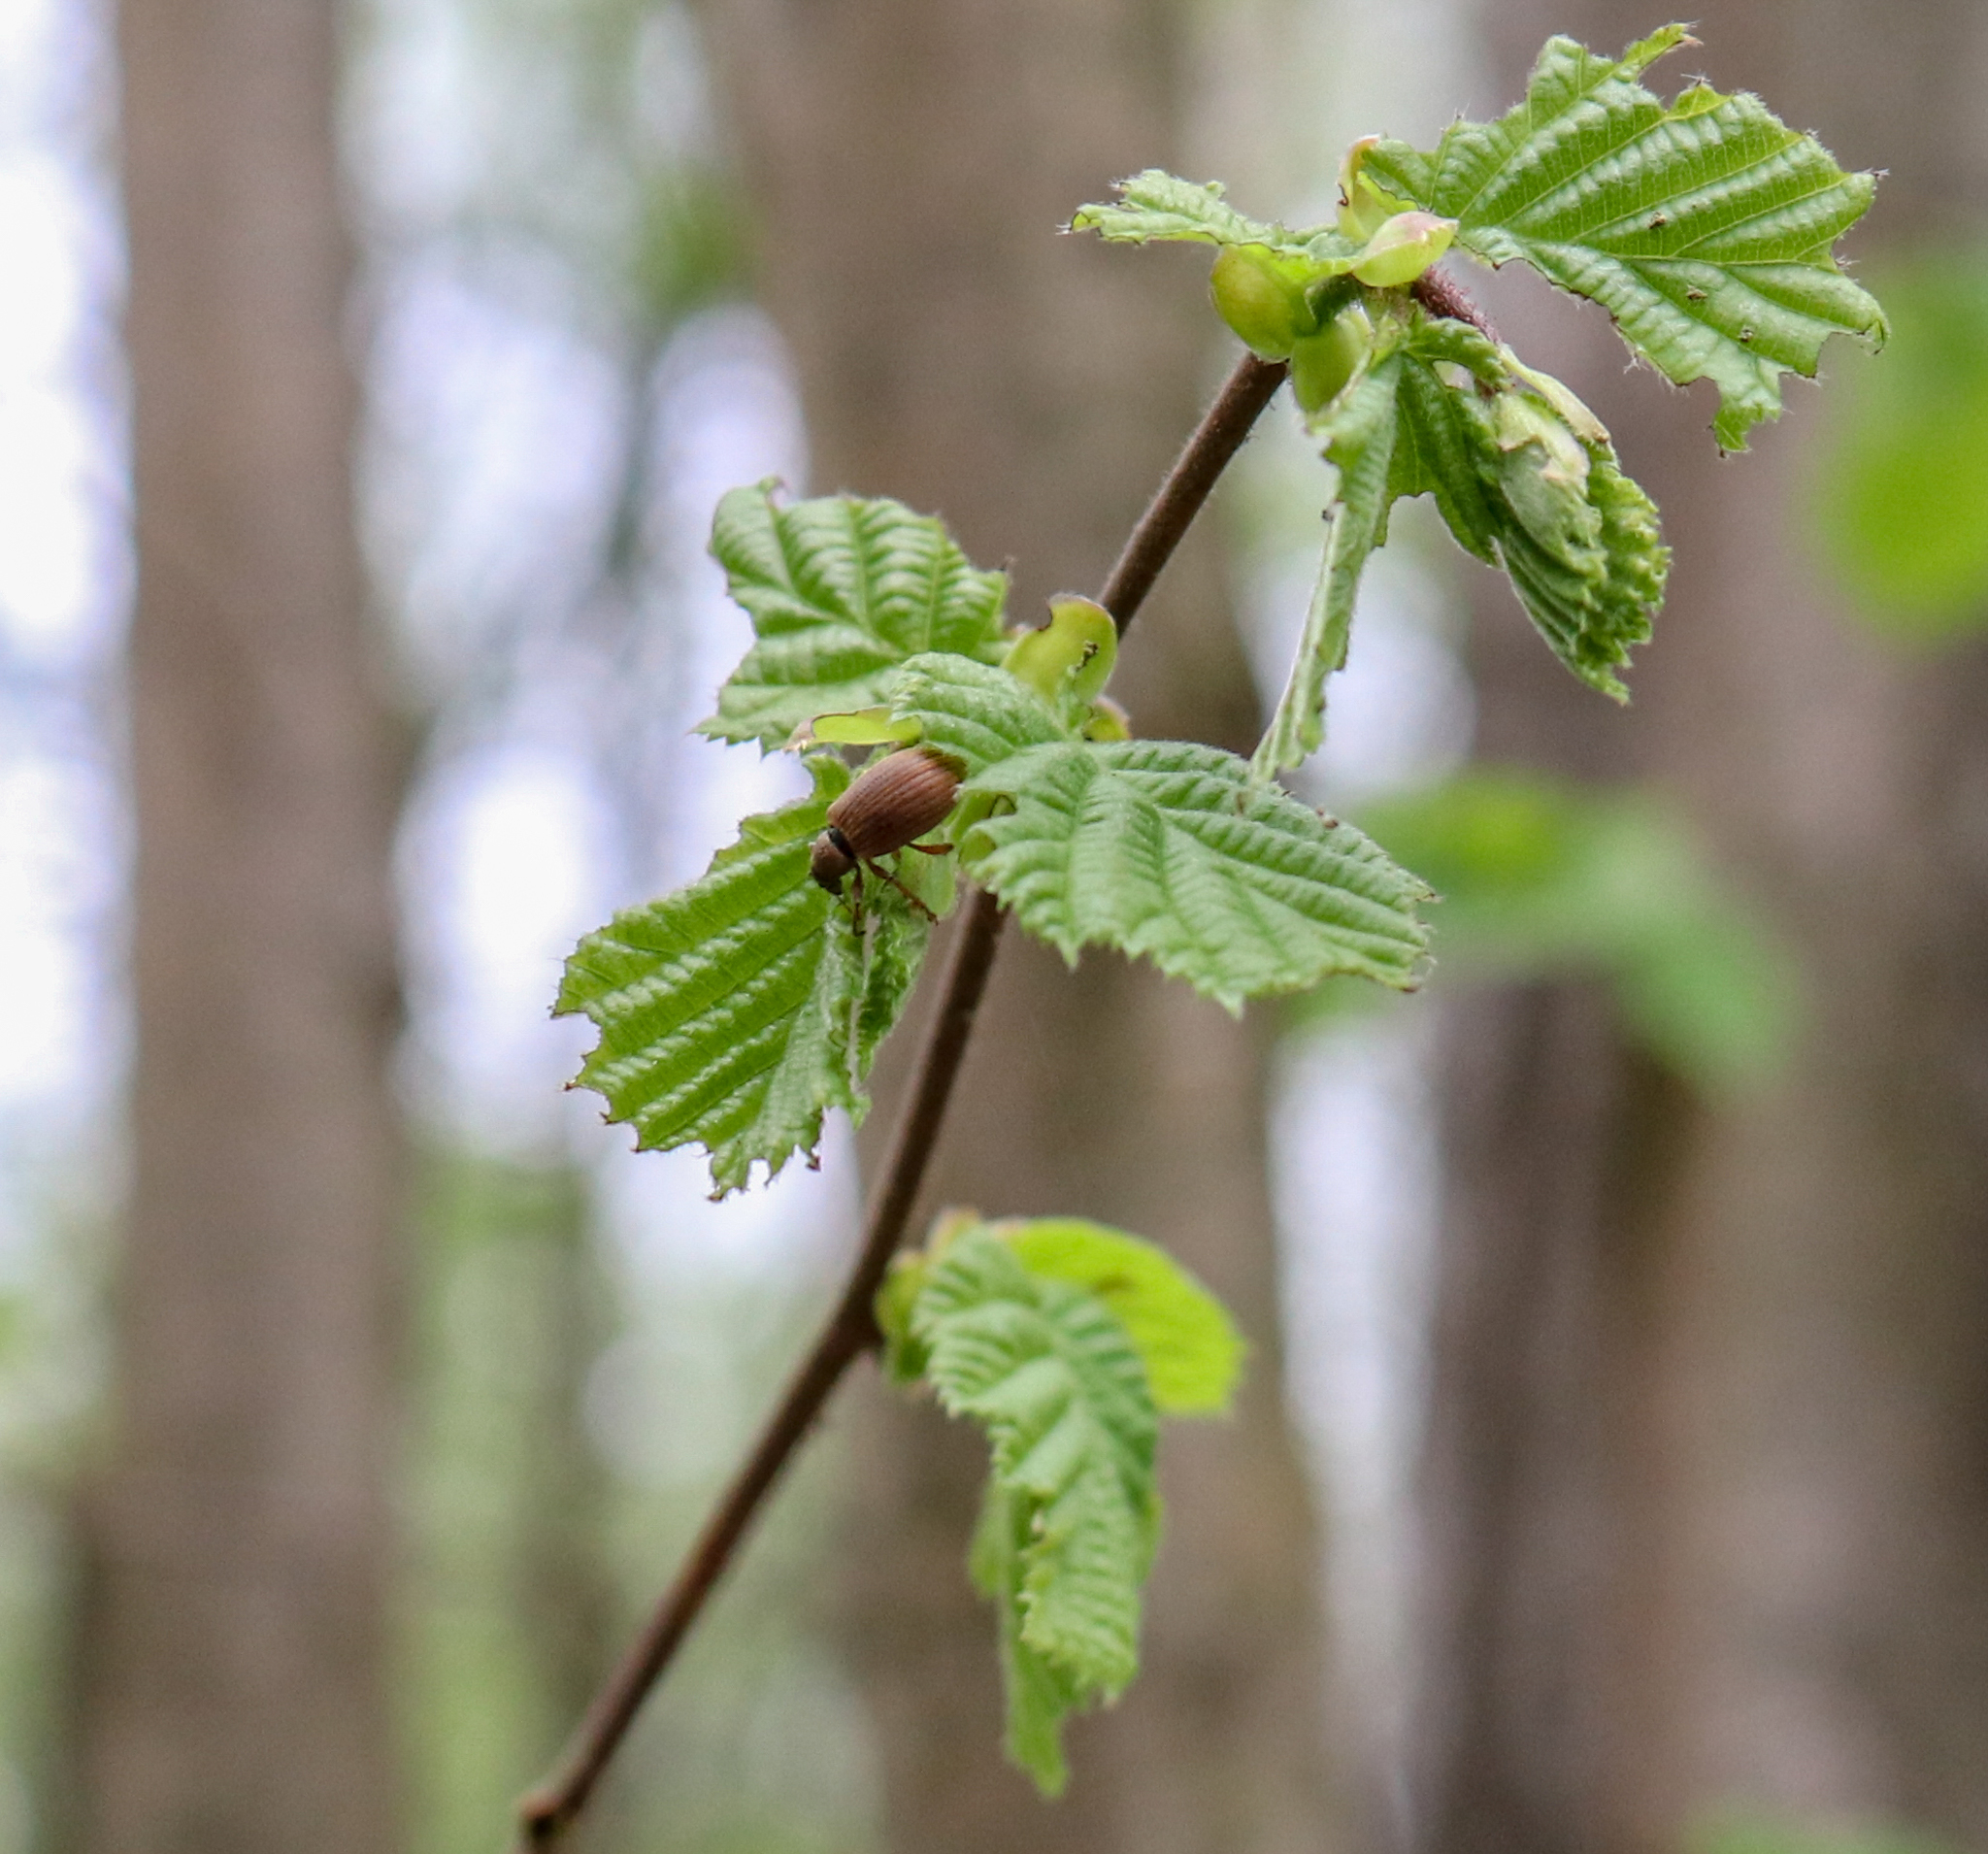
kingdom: Animalia
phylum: Arthropoda
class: Insecta
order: Coleoptera
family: Curculionidae
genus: Polydrusus
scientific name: Polydrusus mollis
